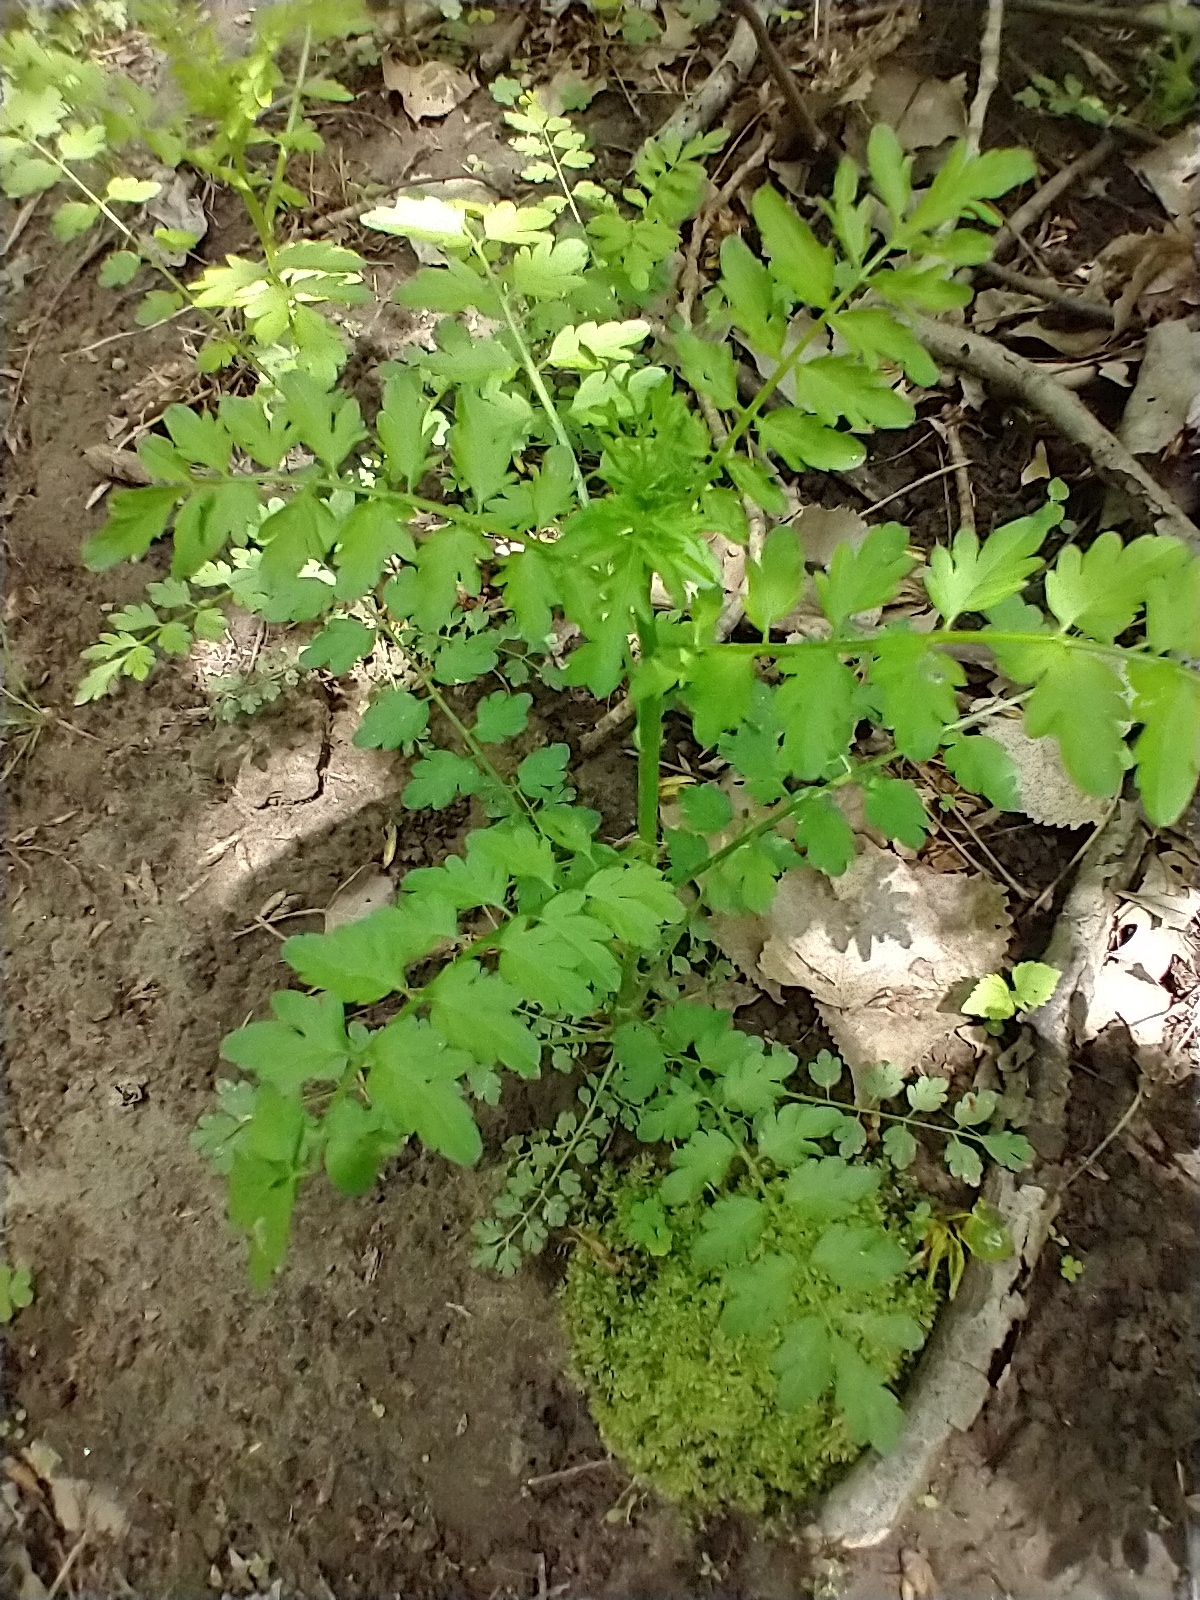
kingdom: Plantae
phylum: Tracheophyta
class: Magnoliopsida
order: Brassicales
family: Brassicaceae
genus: Cardamine
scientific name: Cardamine impatiens
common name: Narrow-leaved bitter-cress
